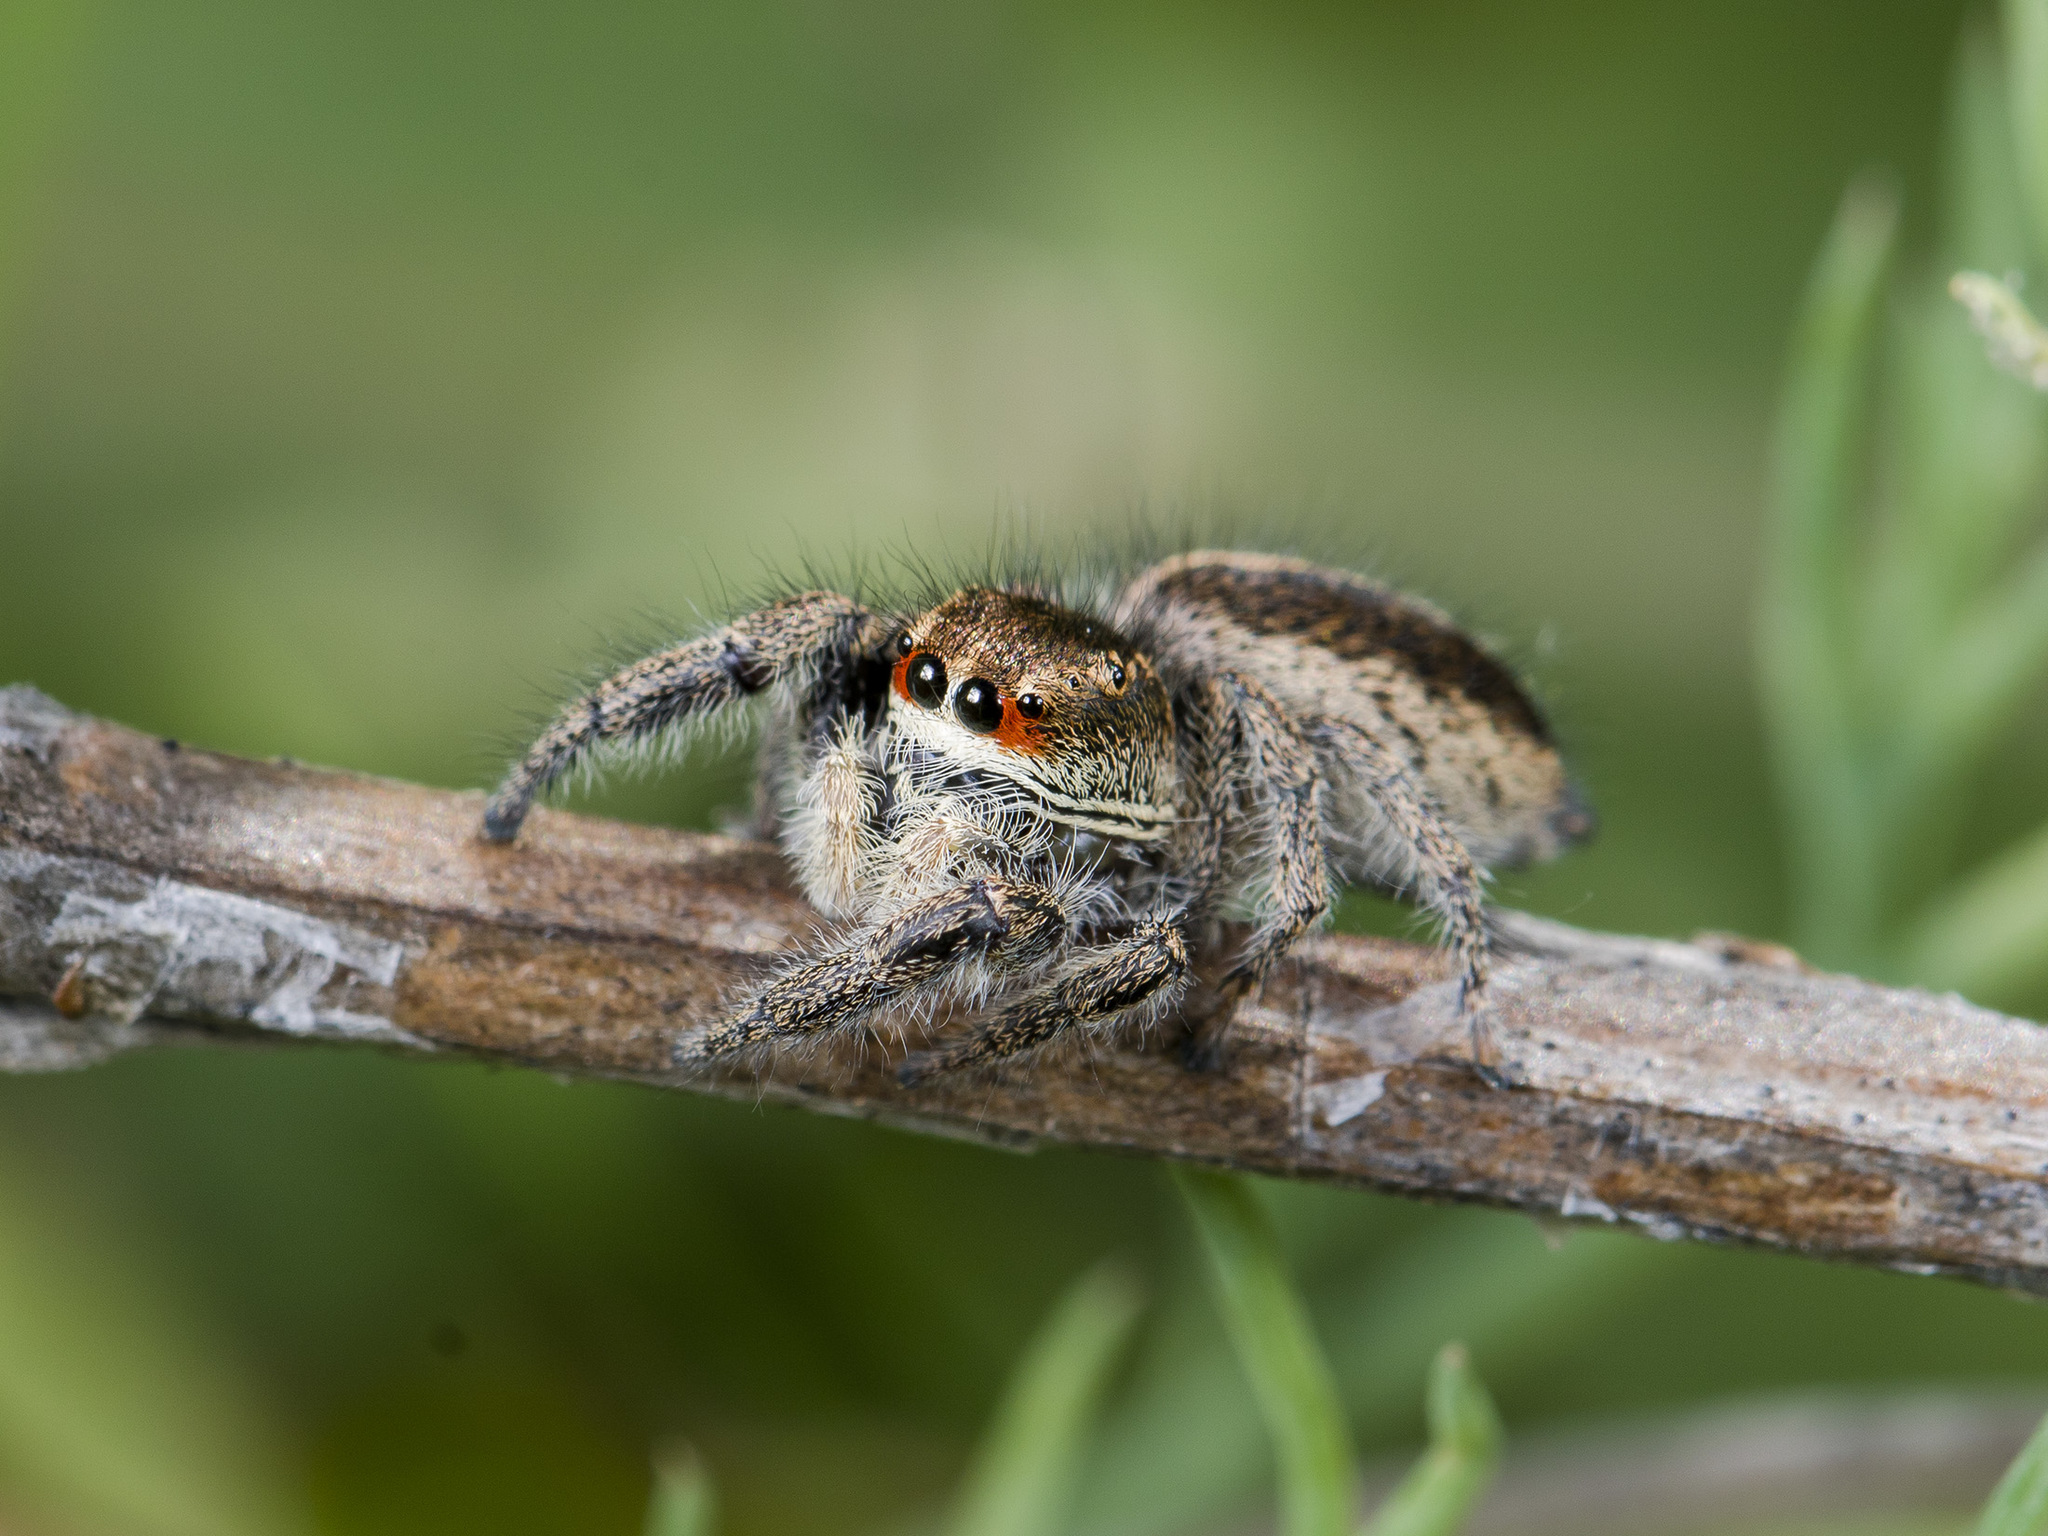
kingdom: Animalia
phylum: Arthropoda
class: Arachnida
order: Araneae
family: Salticidae
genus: Pellenes
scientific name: Pellenes seriatus
